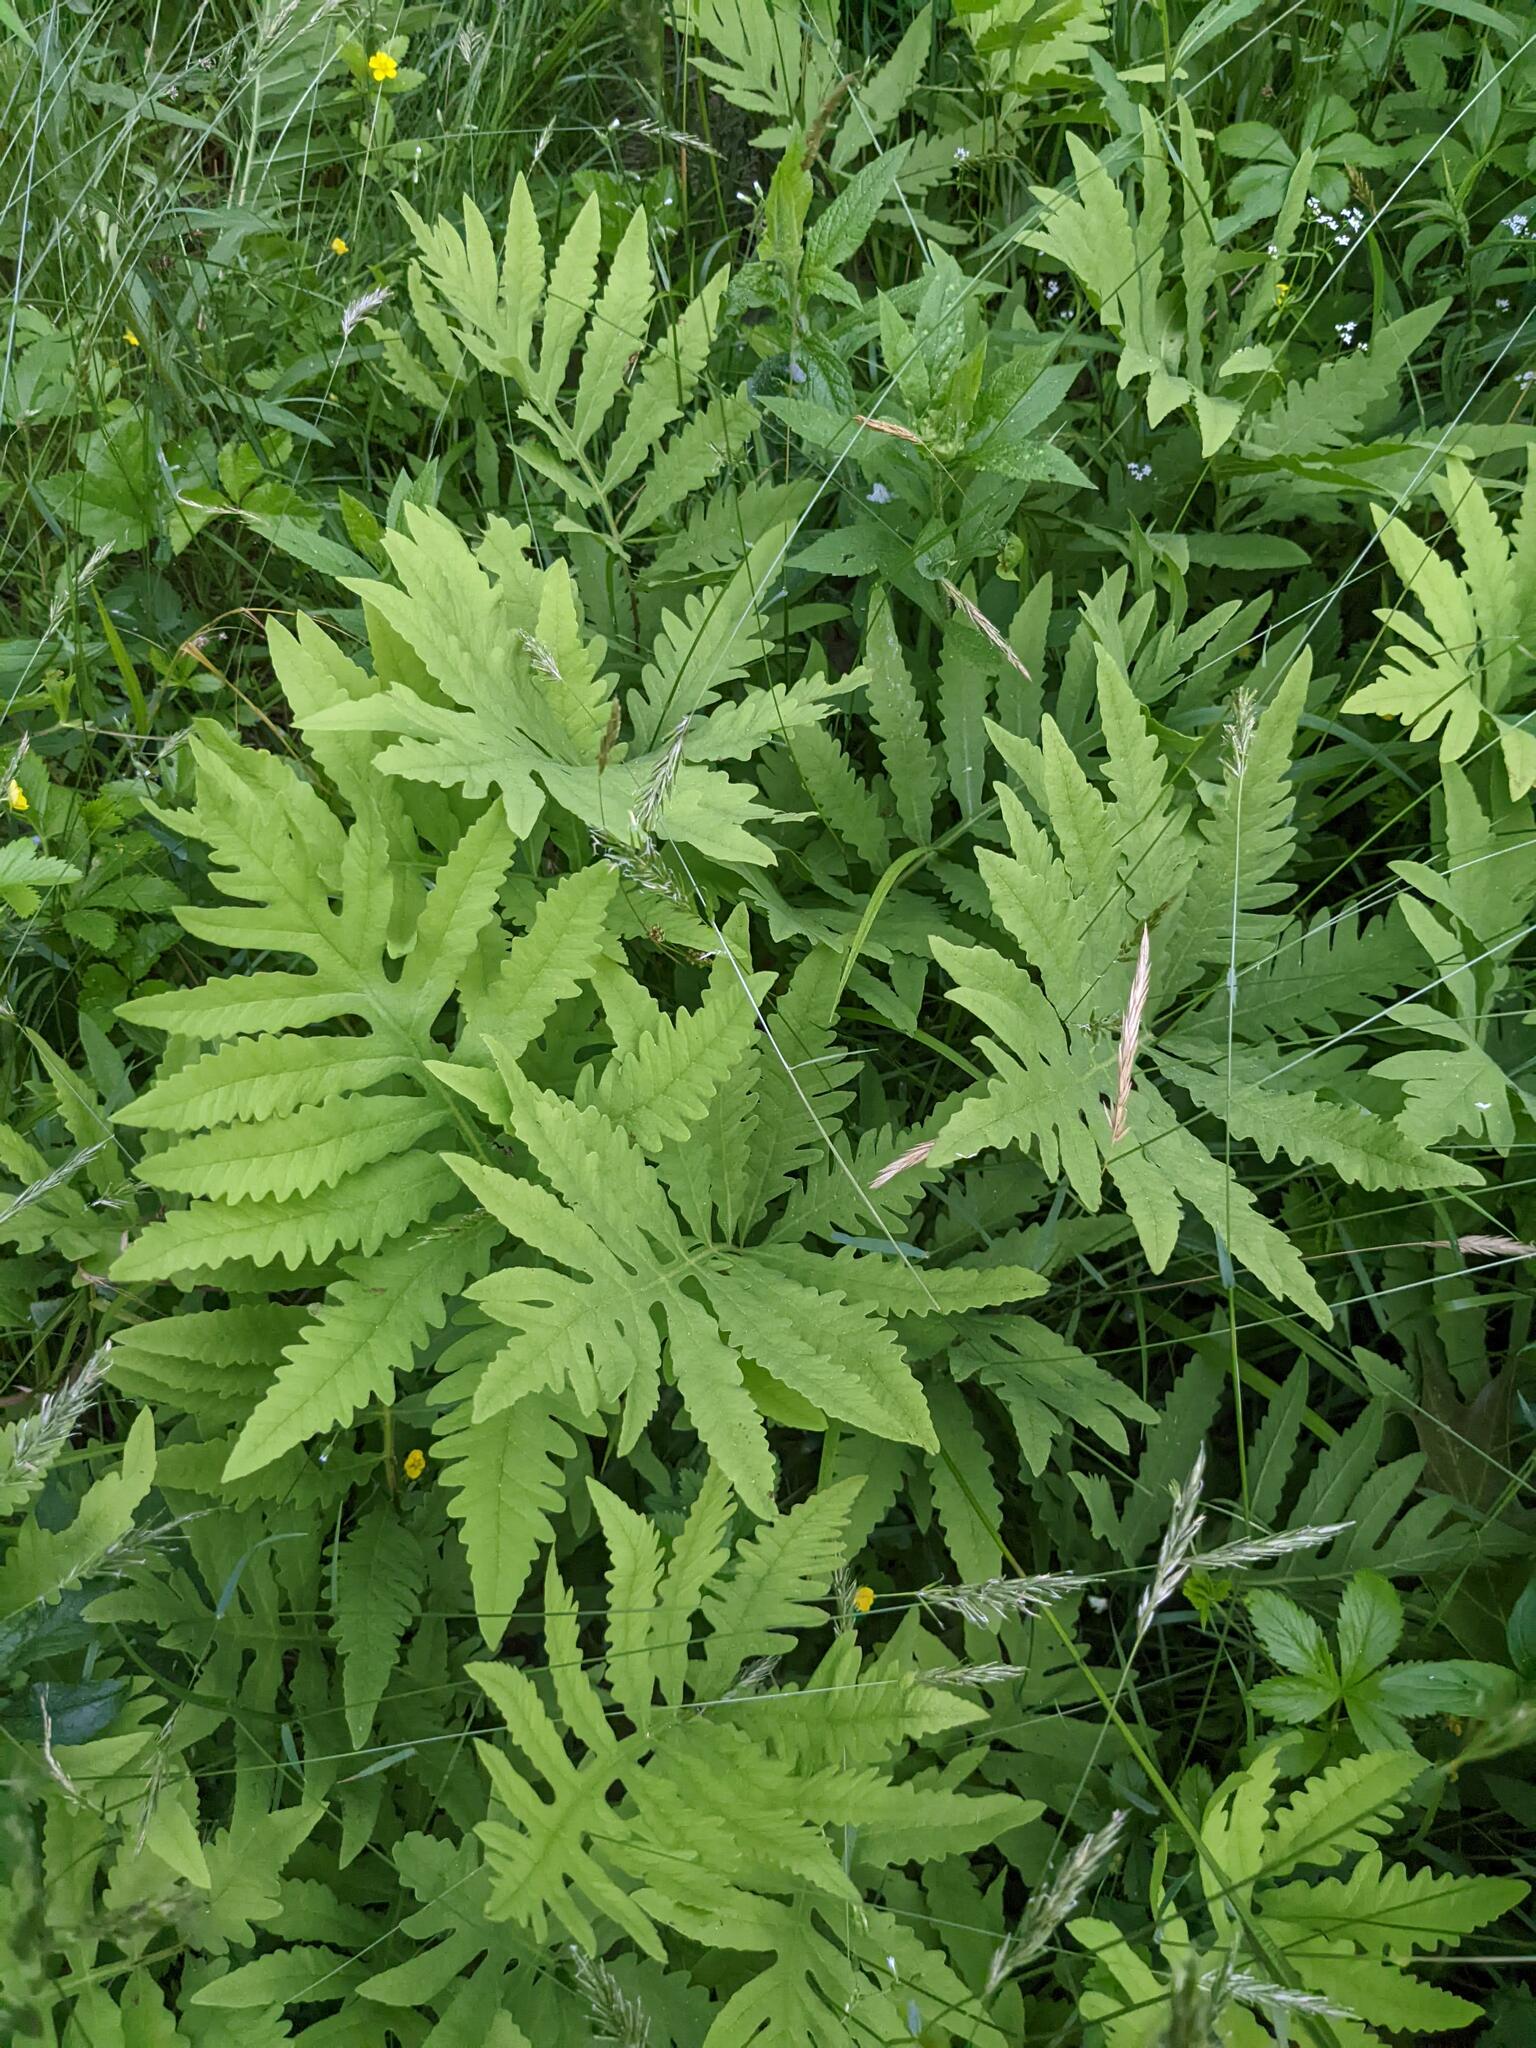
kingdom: Plantae
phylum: Tracheophyta
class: Polypodiopsida
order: Polypodiales
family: Onocleaceae
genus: Onoclea
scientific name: Onoclea sensibilis
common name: Sensitive fern
